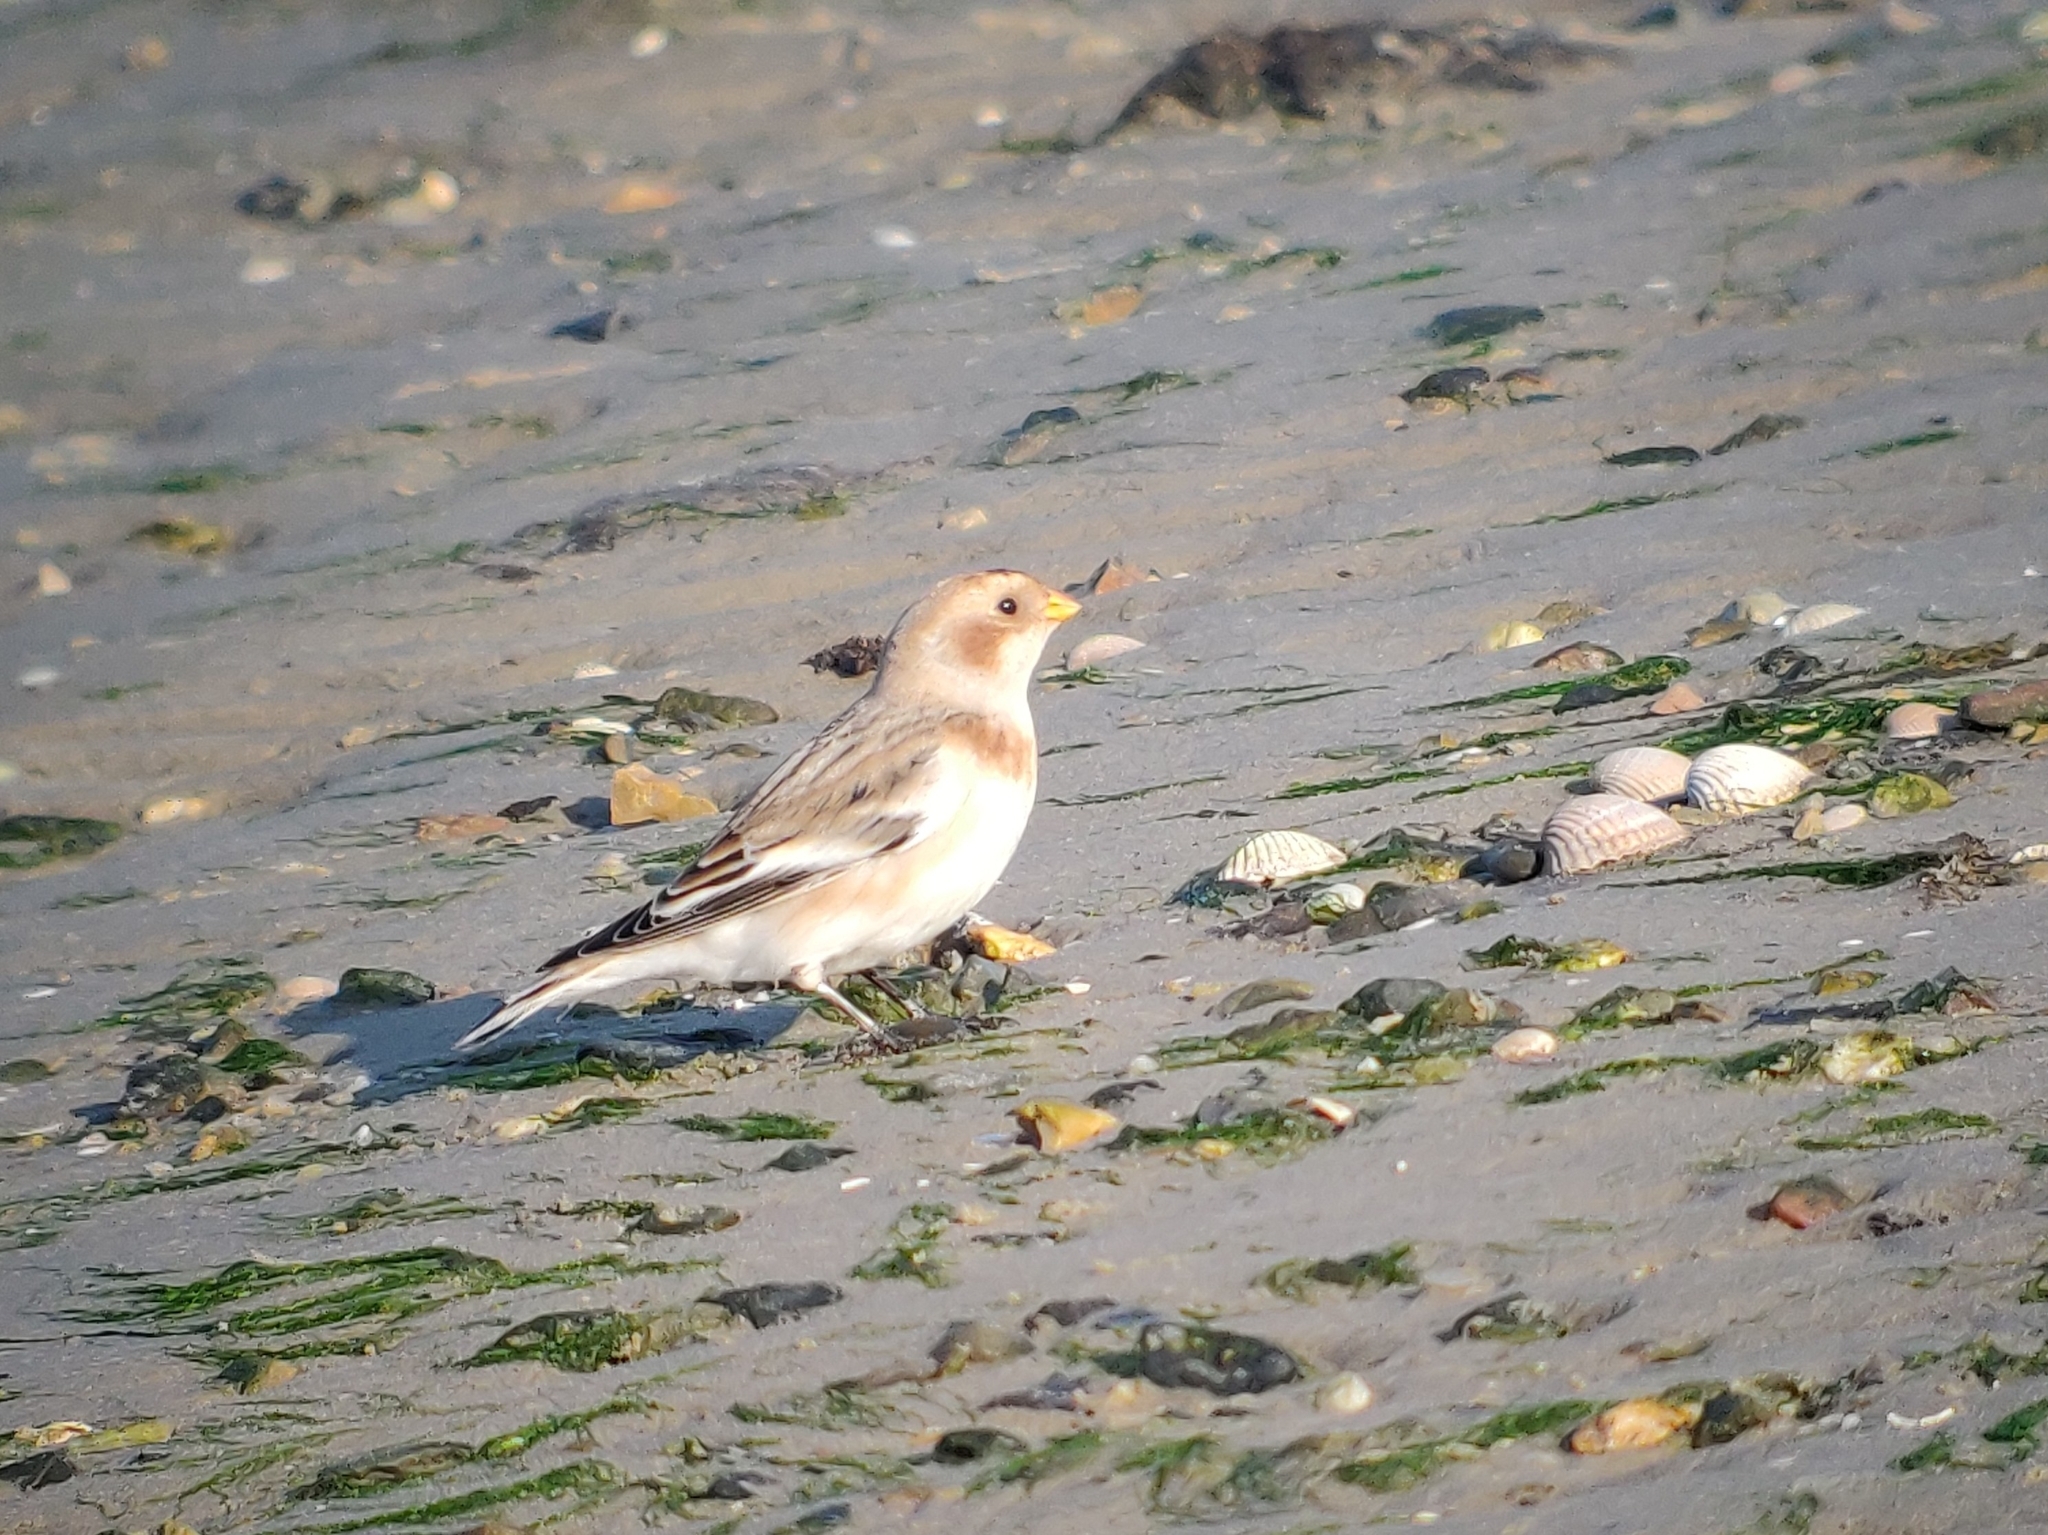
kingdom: Animalia
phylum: Chordata
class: Aves
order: Passeriformes
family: Calcariidae
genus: Plectrophenax
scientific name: Plectrophenax nivalis
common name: Snow bunting
